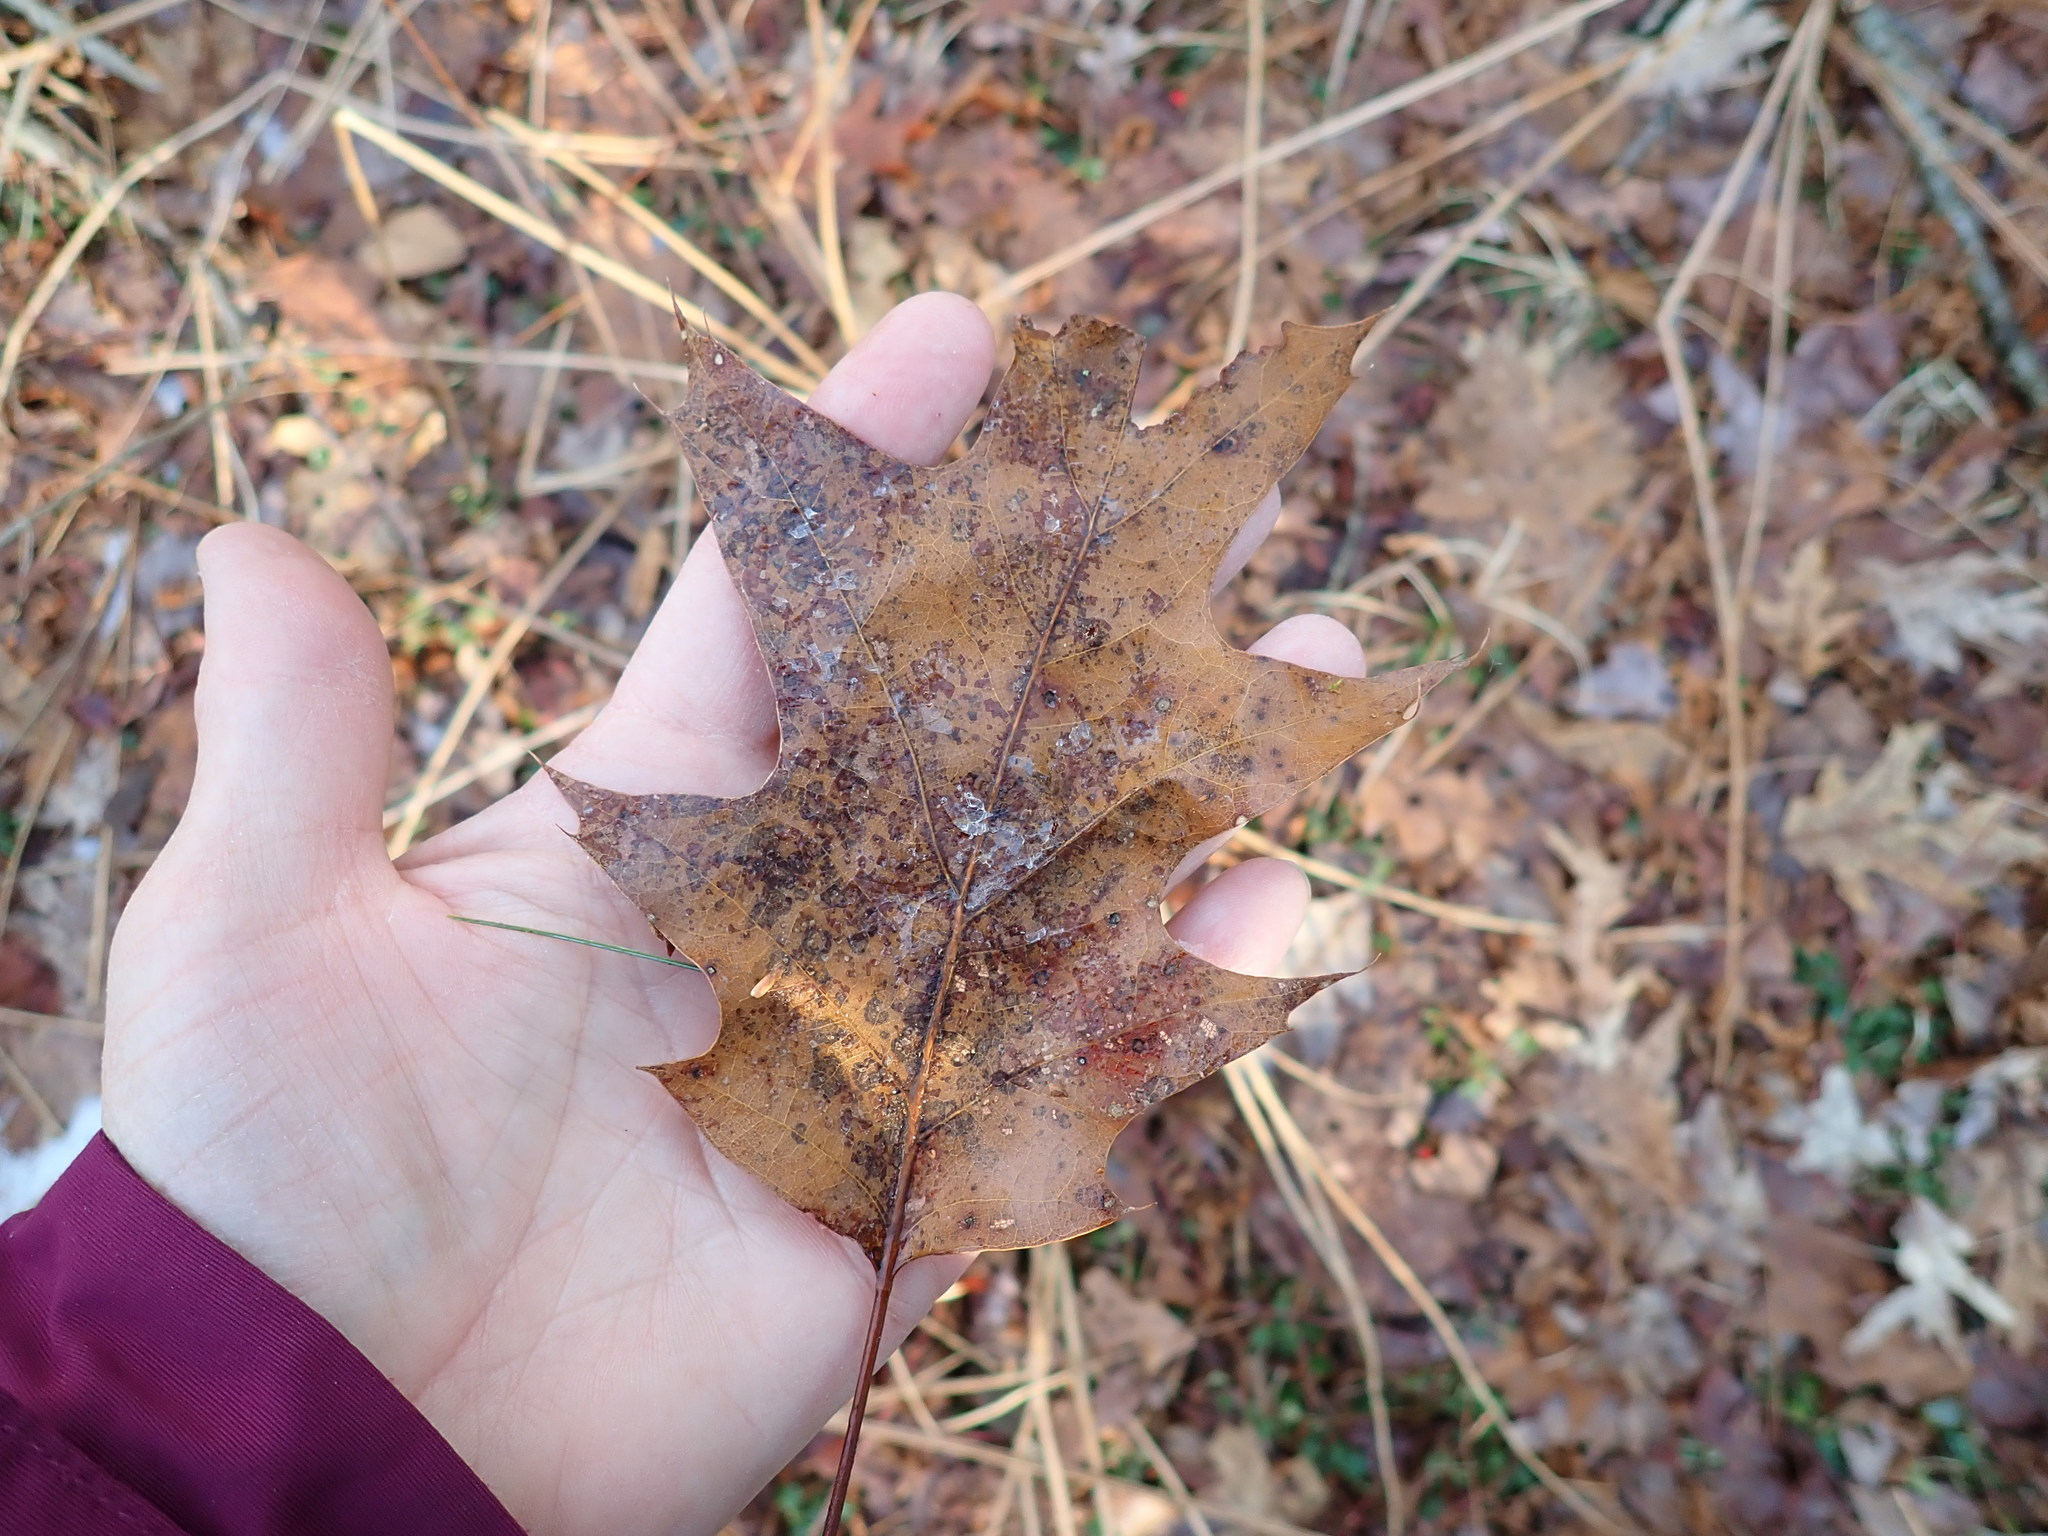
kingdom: Plantae
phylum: Tracheophyta
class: Magnoliopsida
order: Fagales
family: Fagaceae
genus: Quercus
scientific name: Quercus rubra
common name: Red oak
